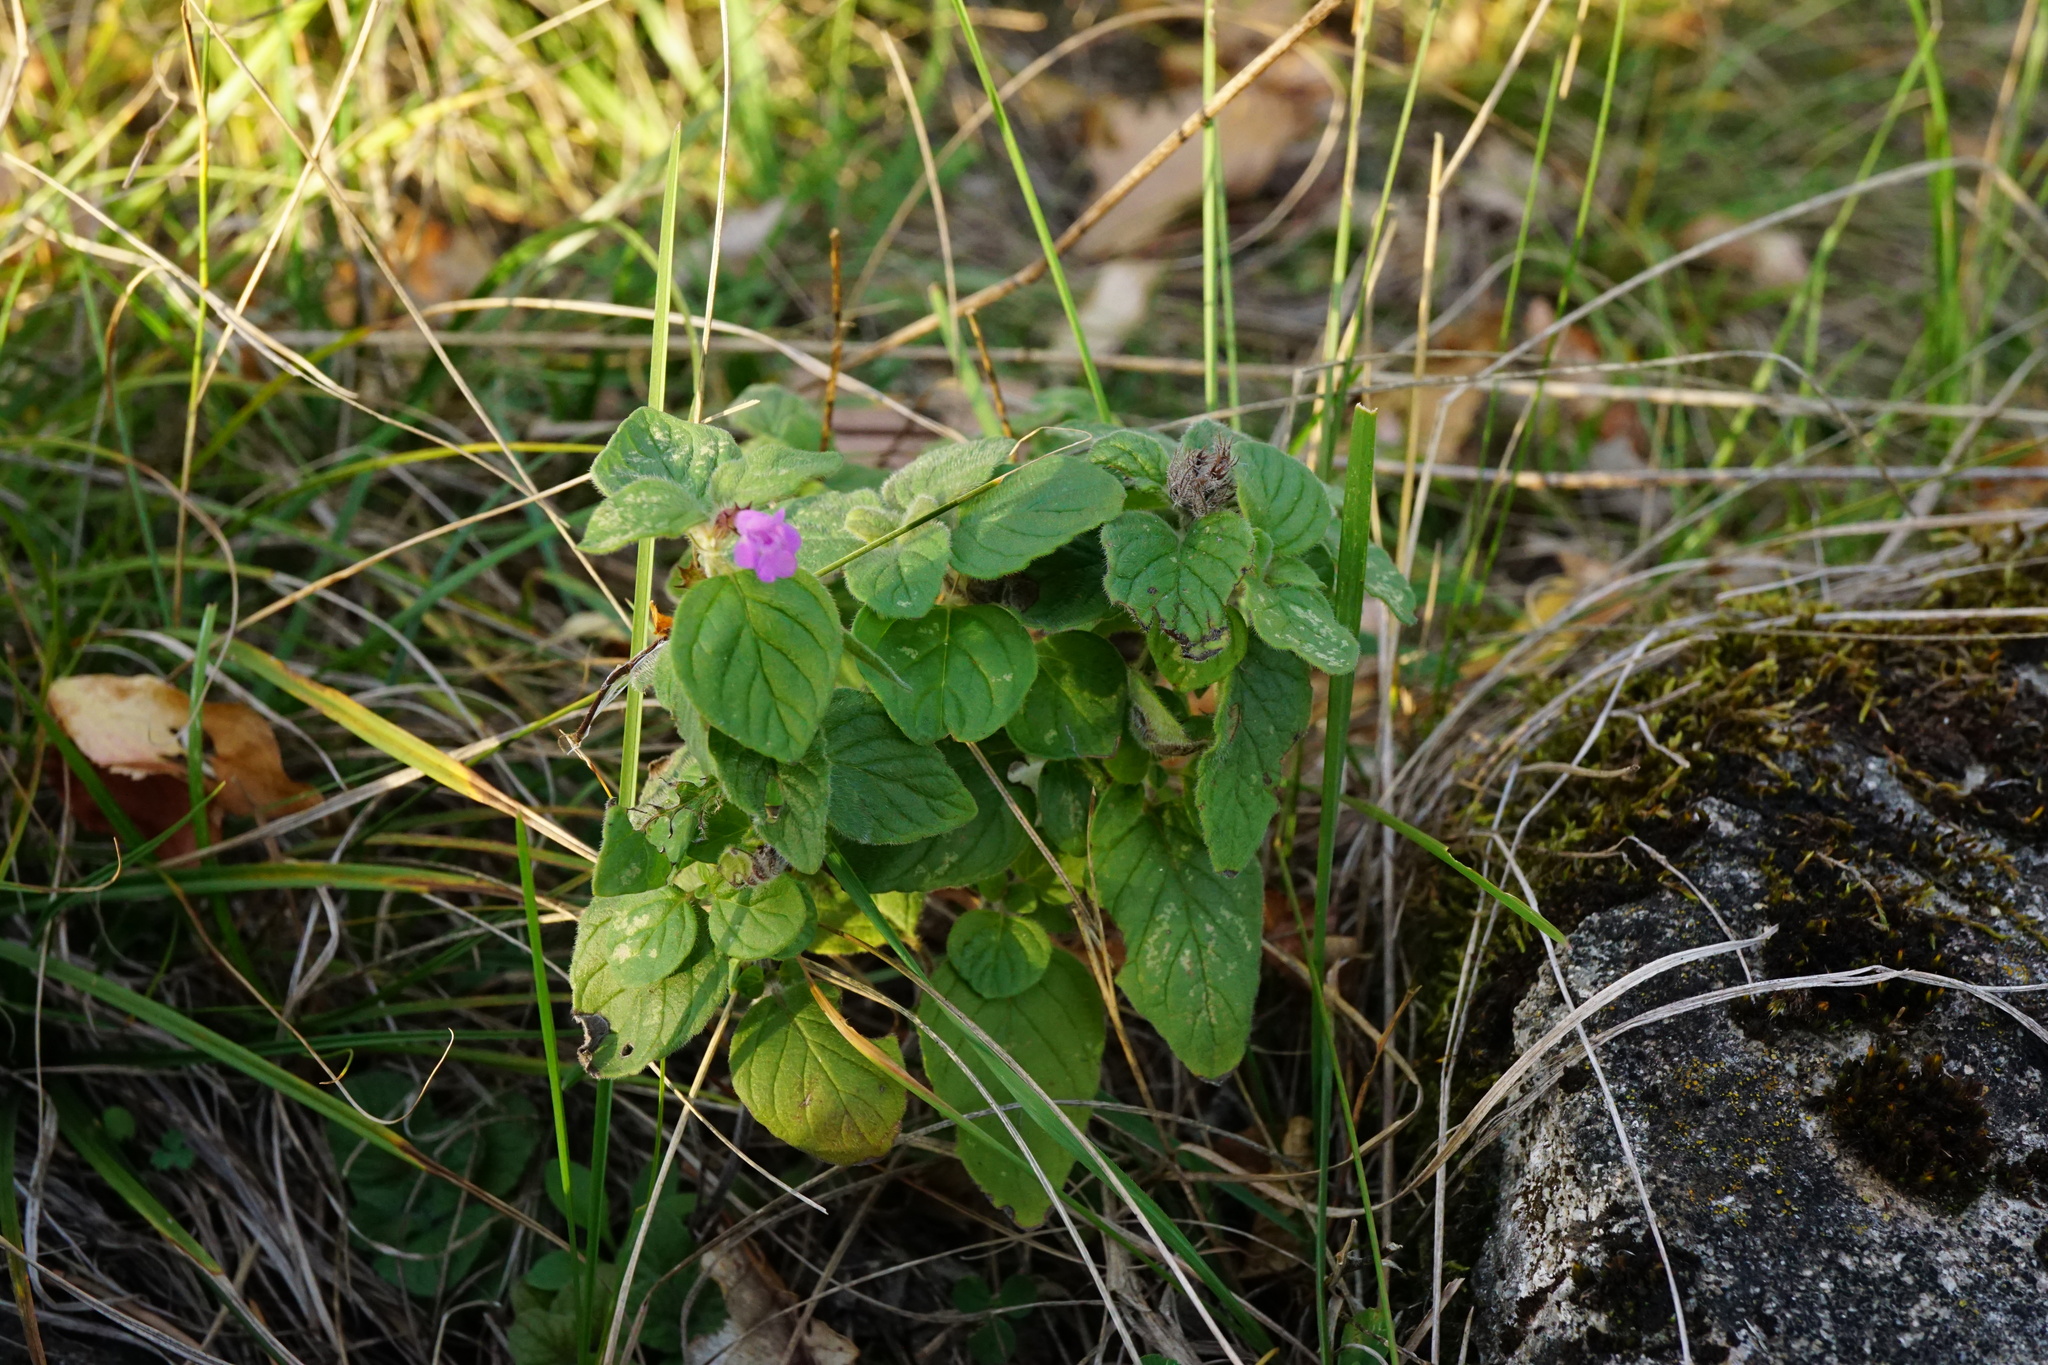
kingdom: Plantae
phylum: Tracheophyta
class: Magnoliopsida
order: Lamiales
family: Lamiaceae
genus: Clinopodium
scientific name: Clinopodium vulgare
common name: Wild basil
